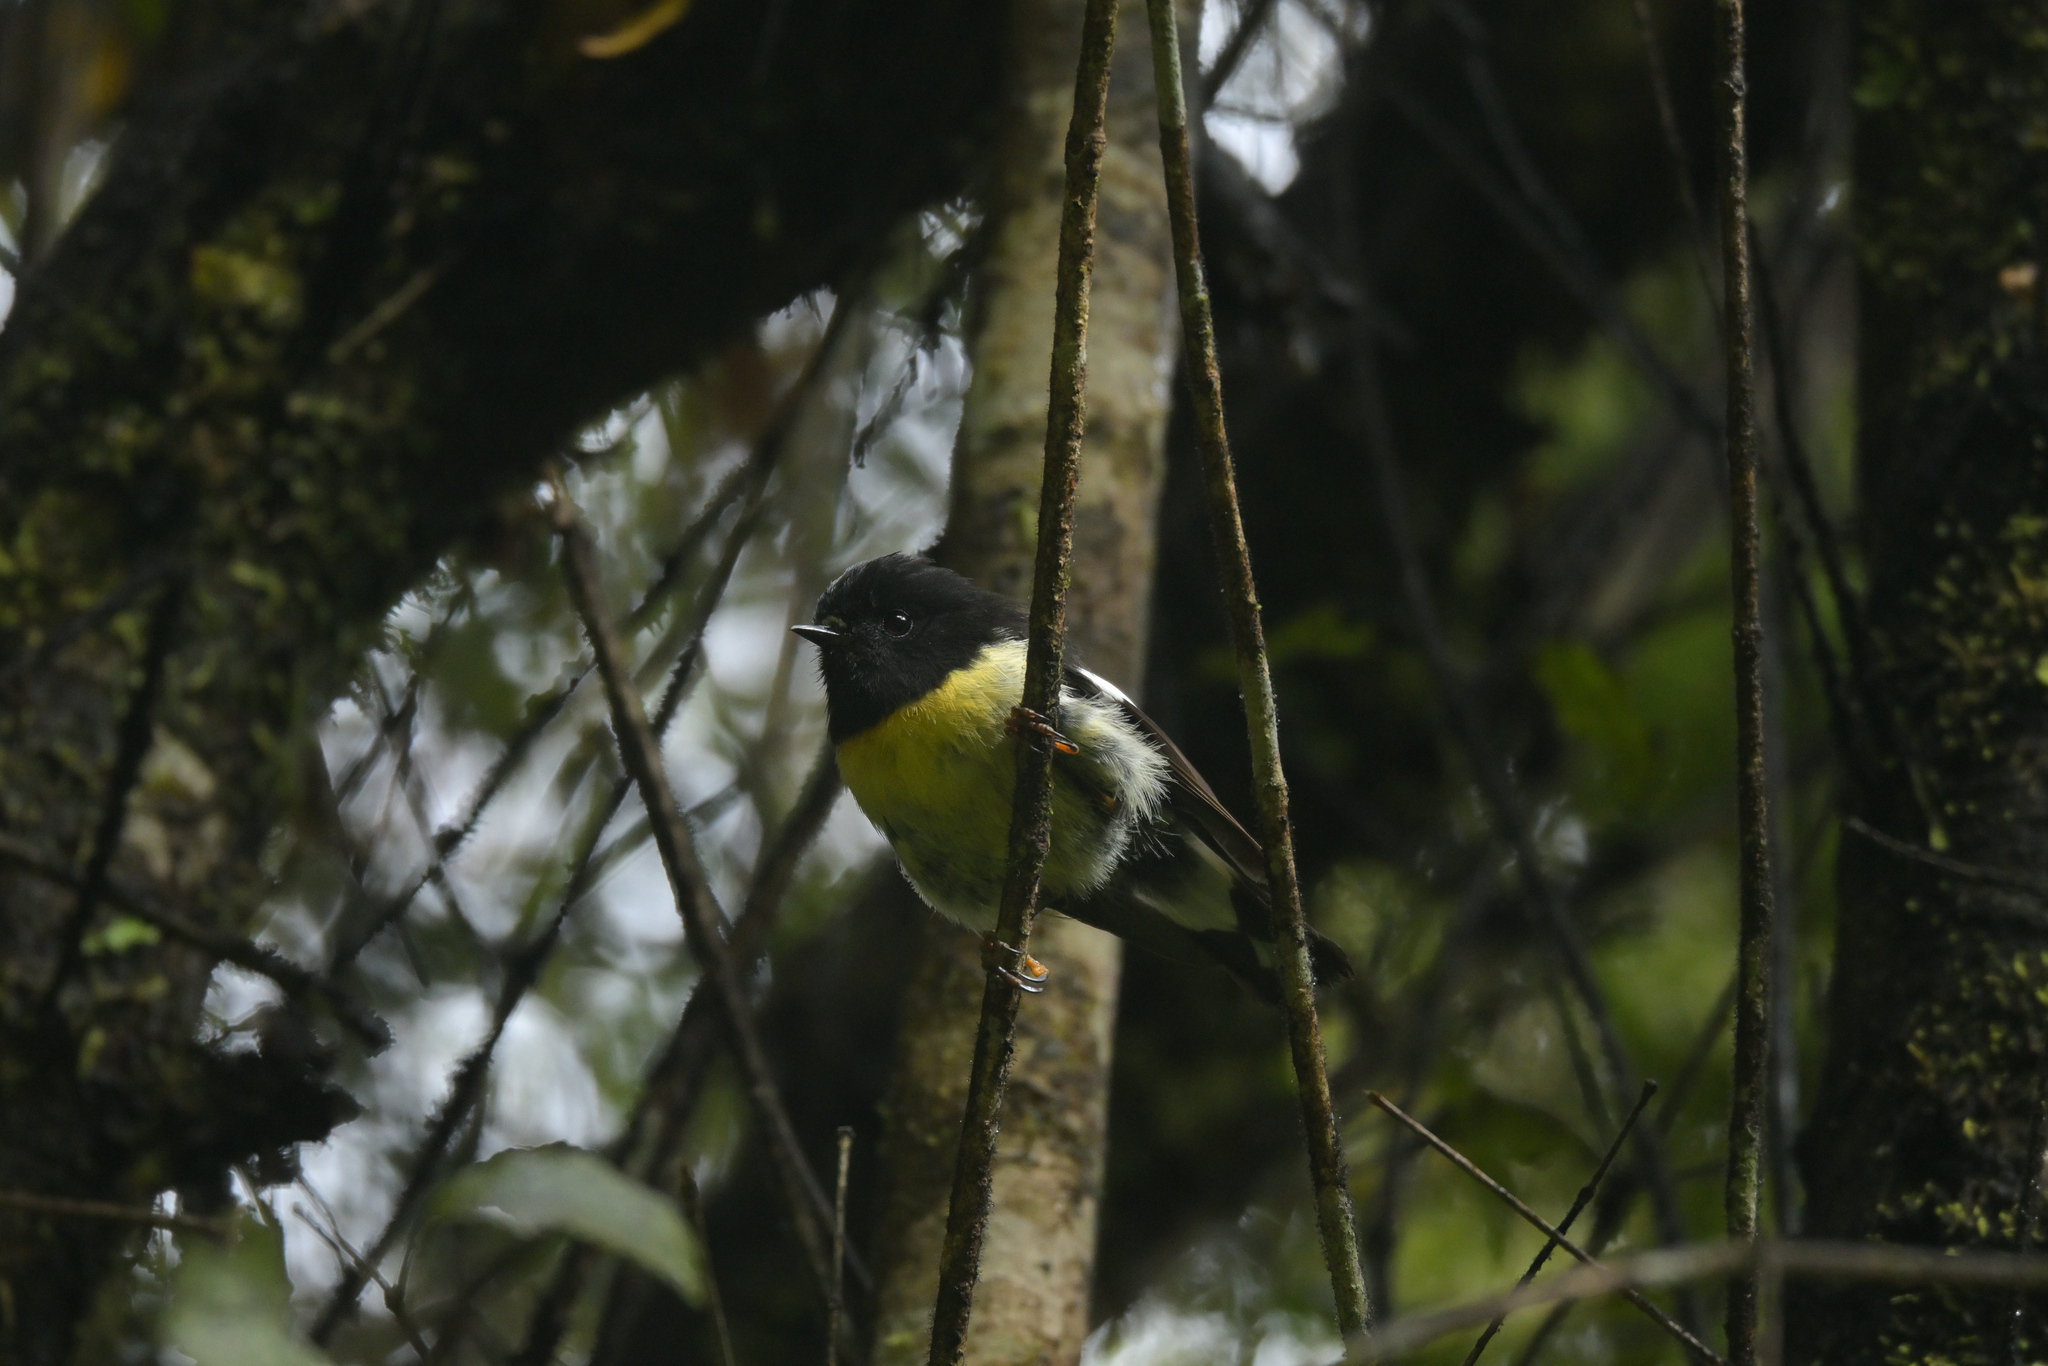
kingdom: Animalia
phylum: Chordata
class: Aves
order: Passeriformes
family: Petroicidae
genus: Petroica
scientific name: Petroica macrocephala
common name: Tomtit
